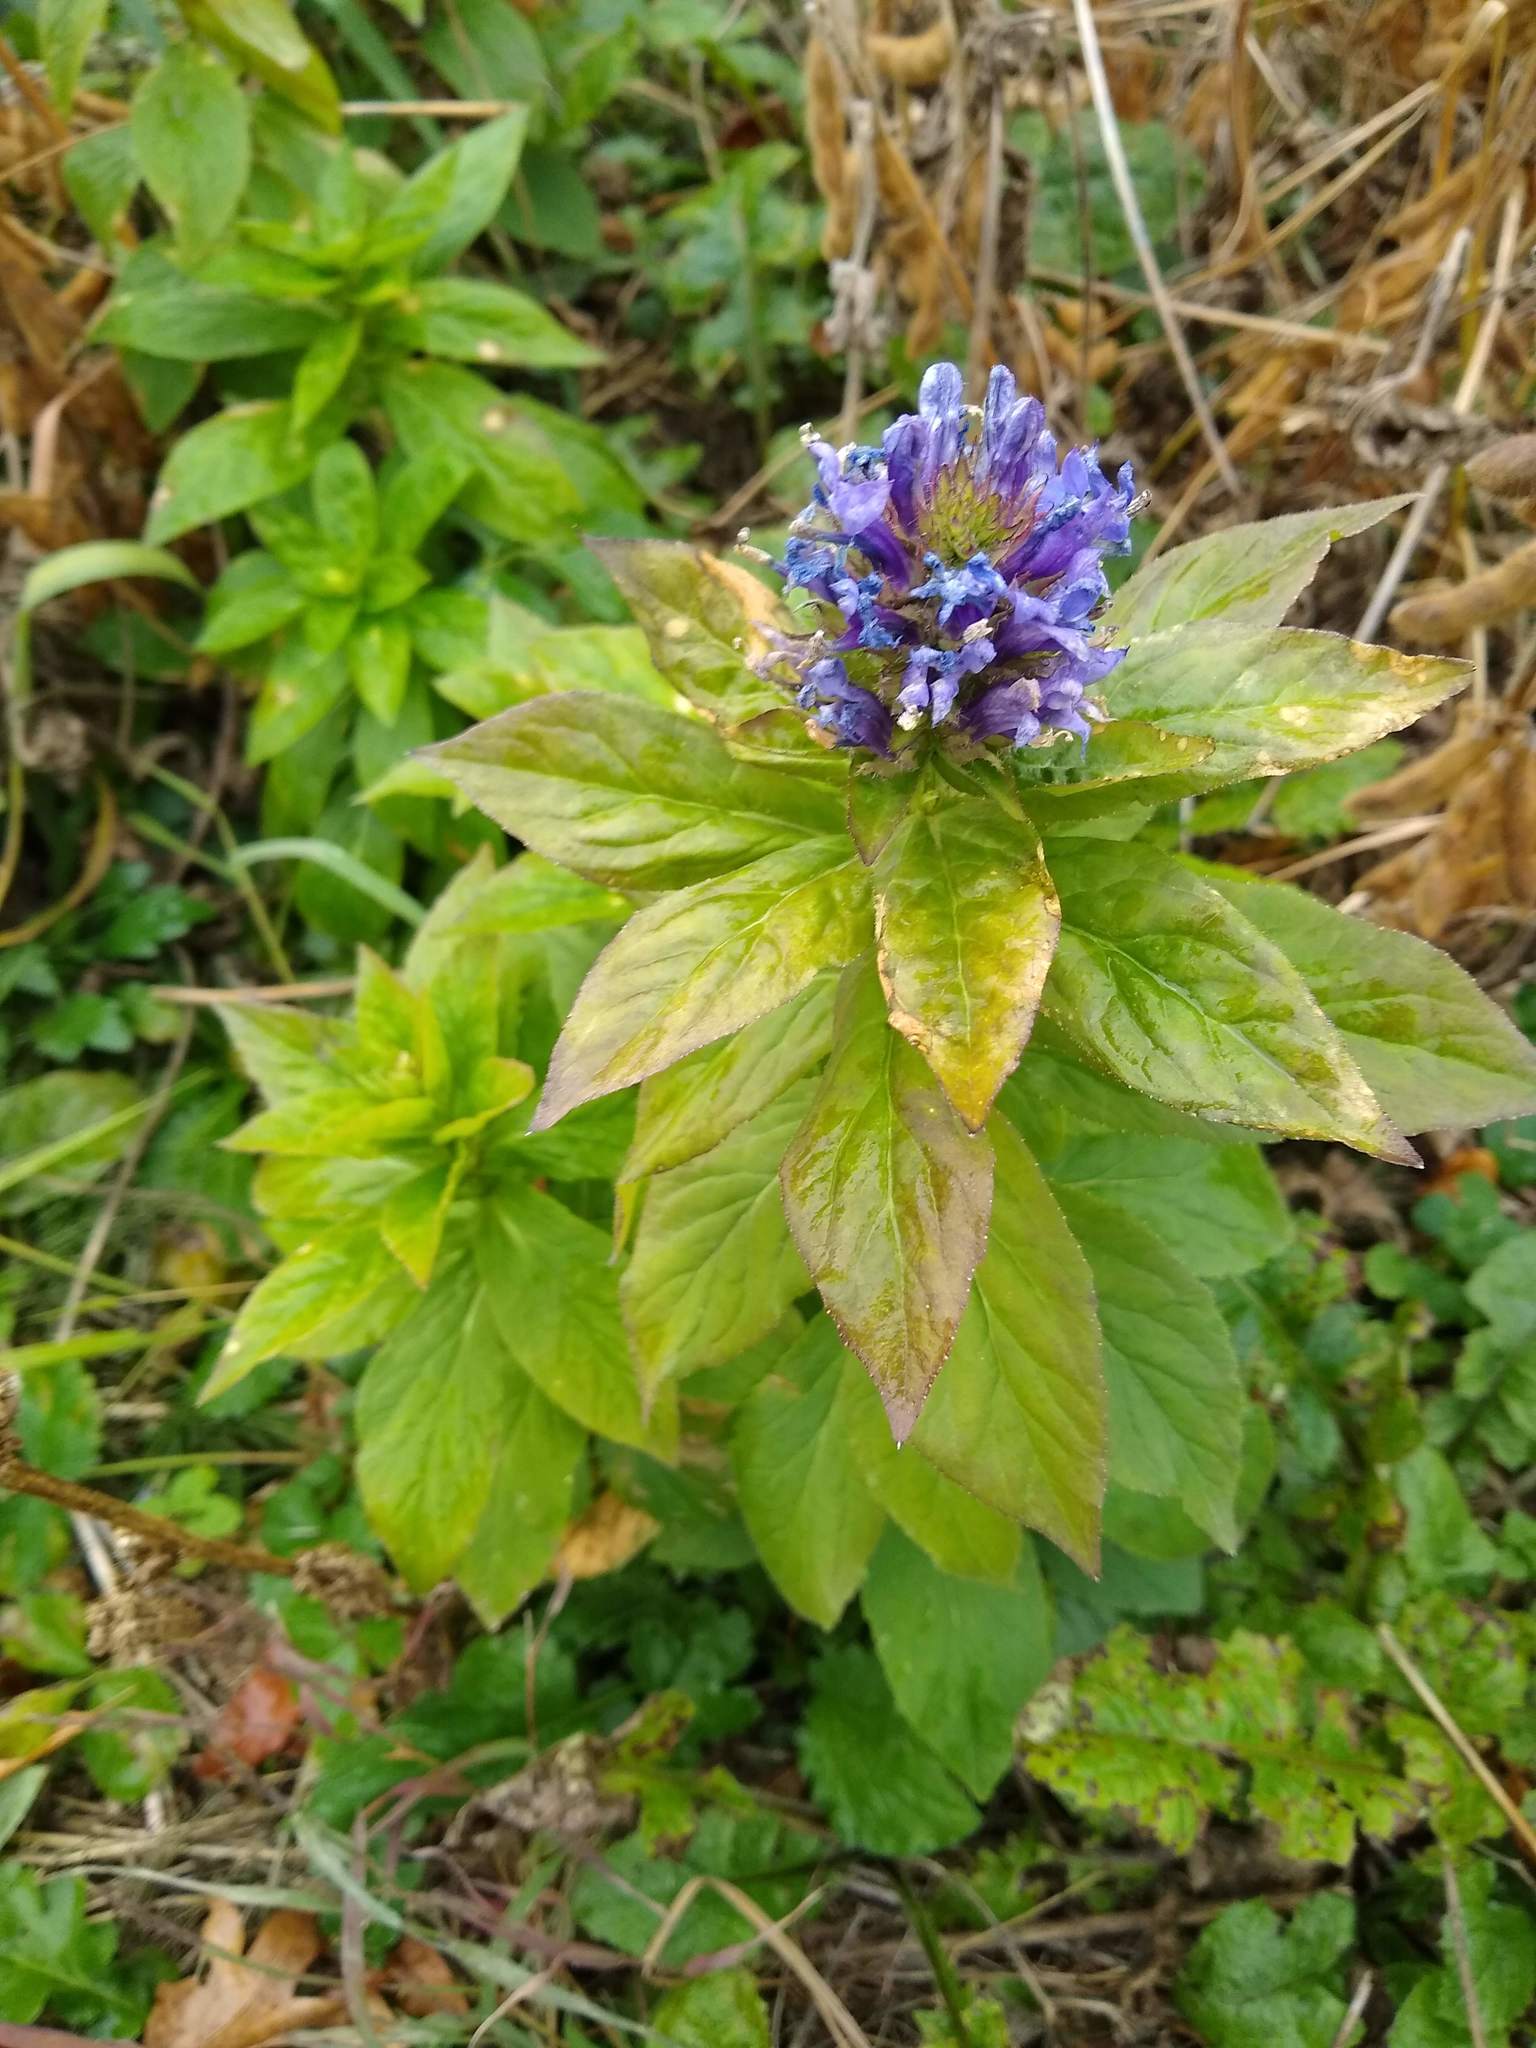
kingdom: Plantae
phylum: Tracheophyta
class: Magnoliopsida
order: Asterales
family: Campanulaceae
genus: Lobelia
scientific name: Lobelia siphilitica
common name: Great lobelia
